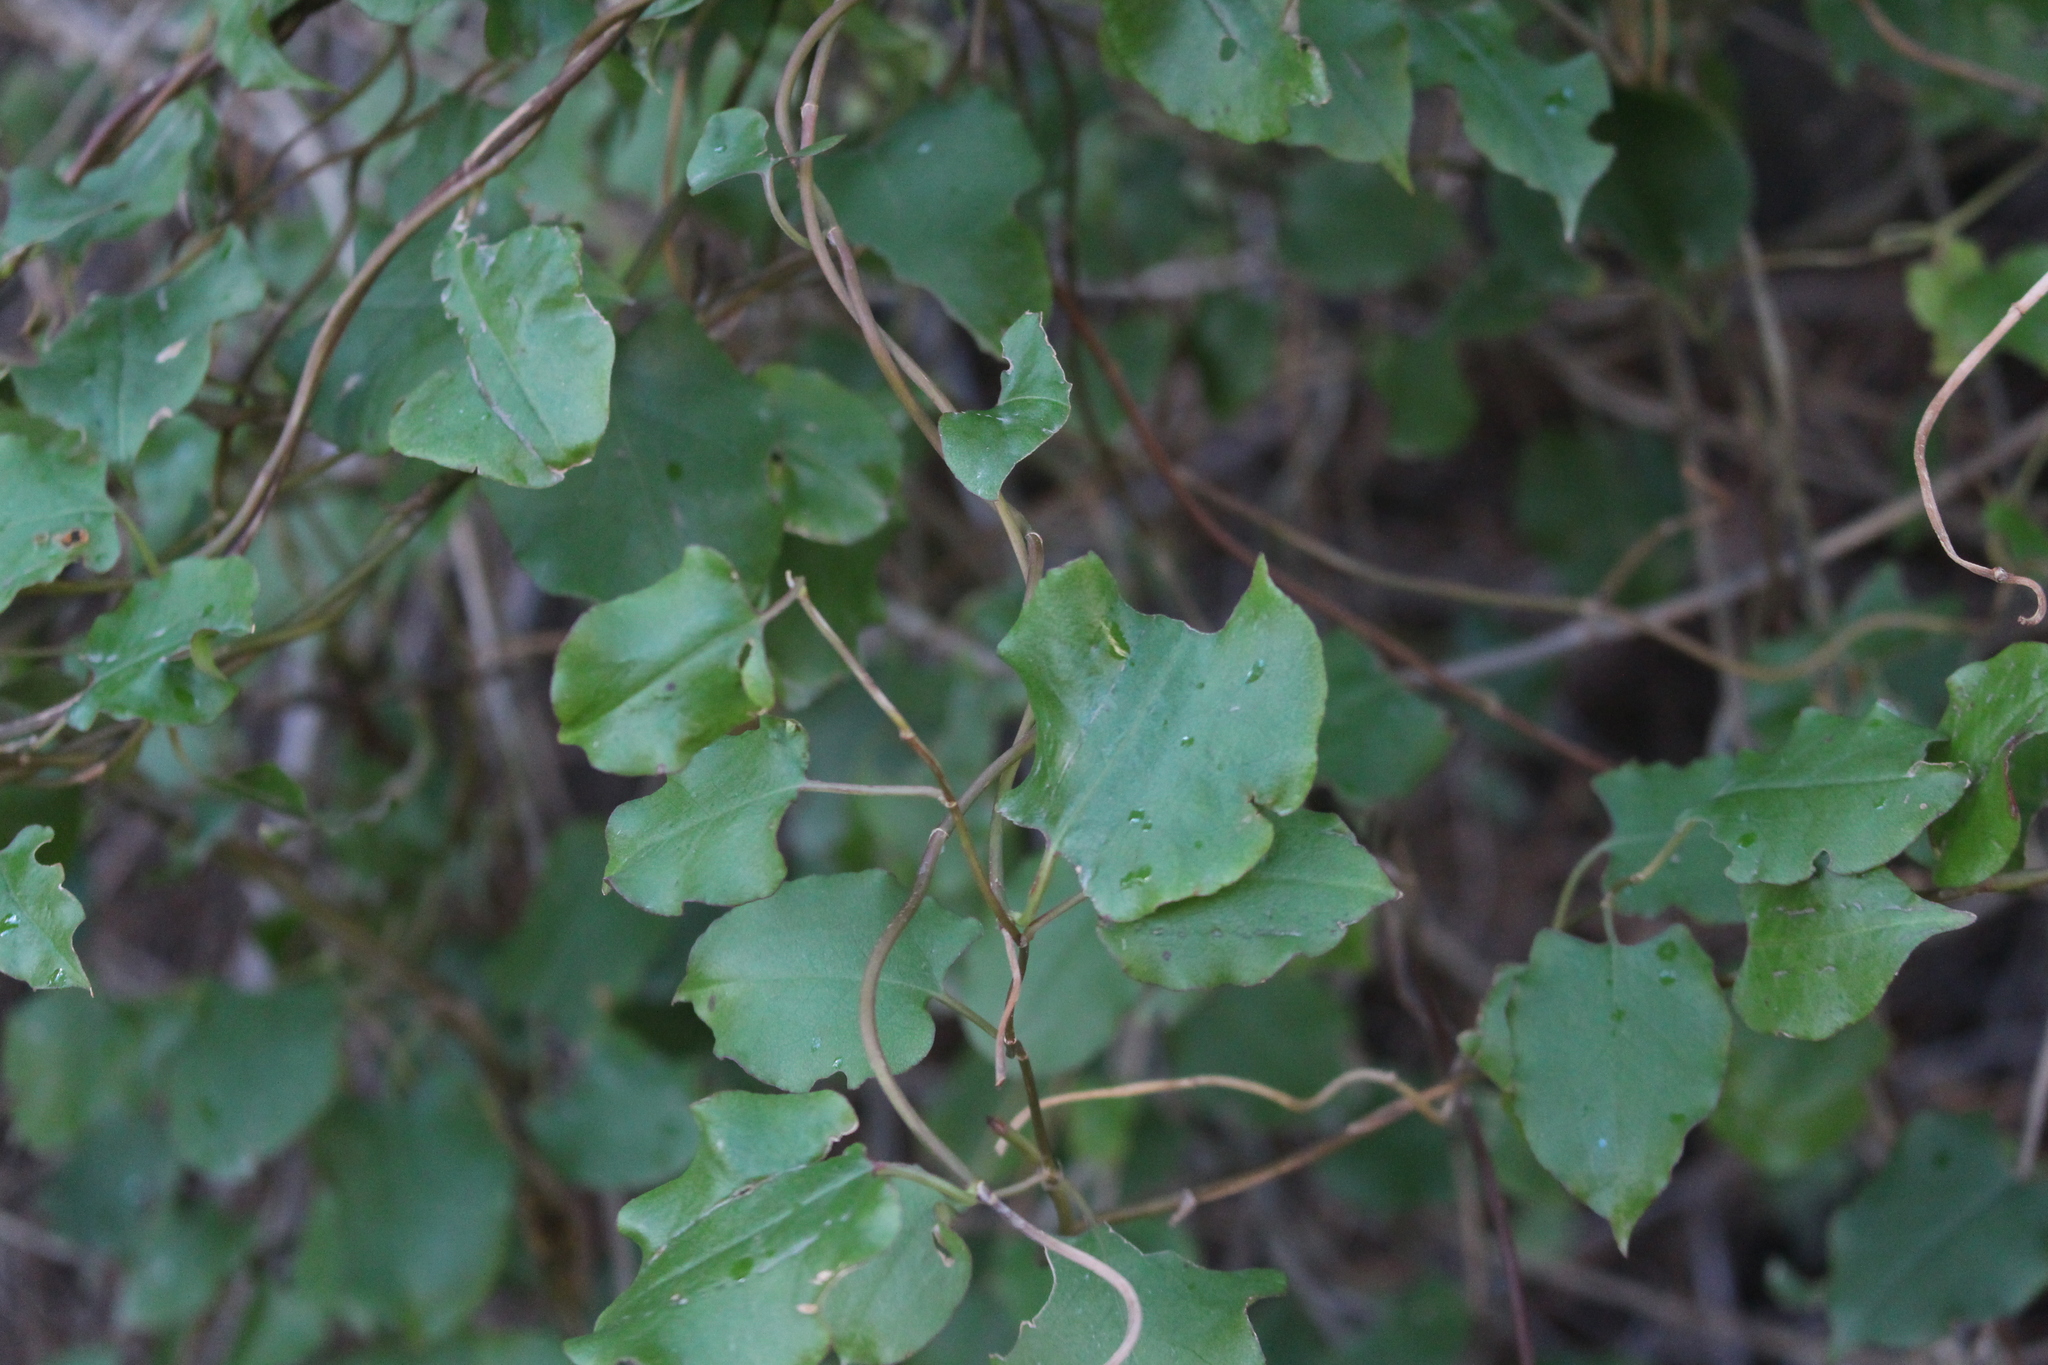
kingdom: Plantae
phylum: Tracheophyta
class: Magnoliopsida
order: Caryophyllales
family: Polygonaceae
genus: Muehlenbeckia
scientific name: Muehlenbeckia australis
